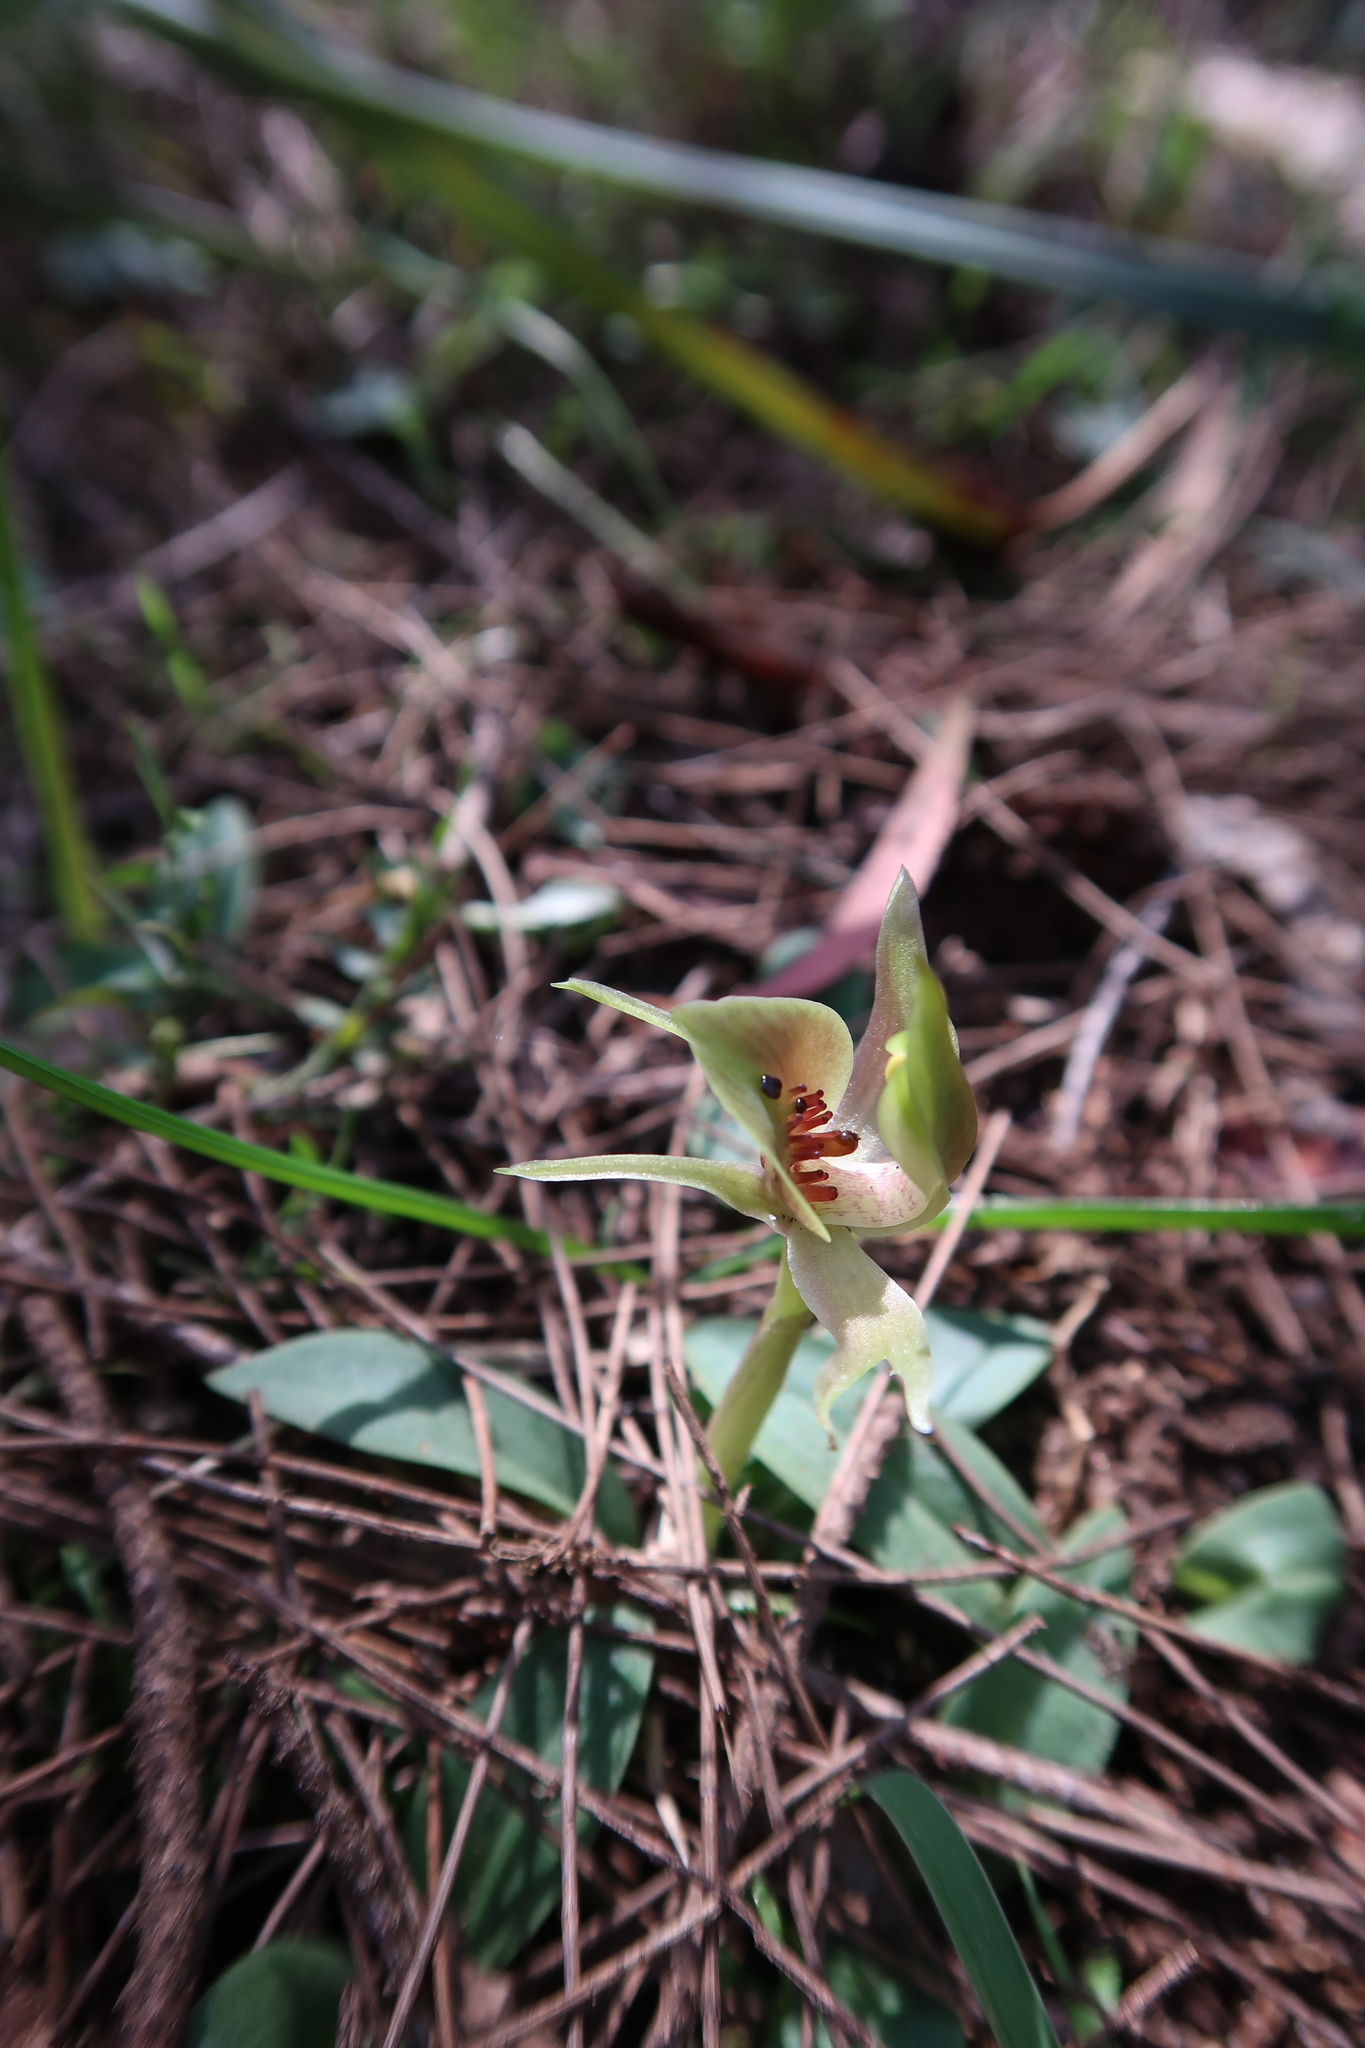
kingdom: Plantae
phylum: Tracheophyta
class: Liliopsida
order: Asparagales
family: Orchidaceae
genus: Chiloglottis
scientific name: Chiloglottis triceratops
